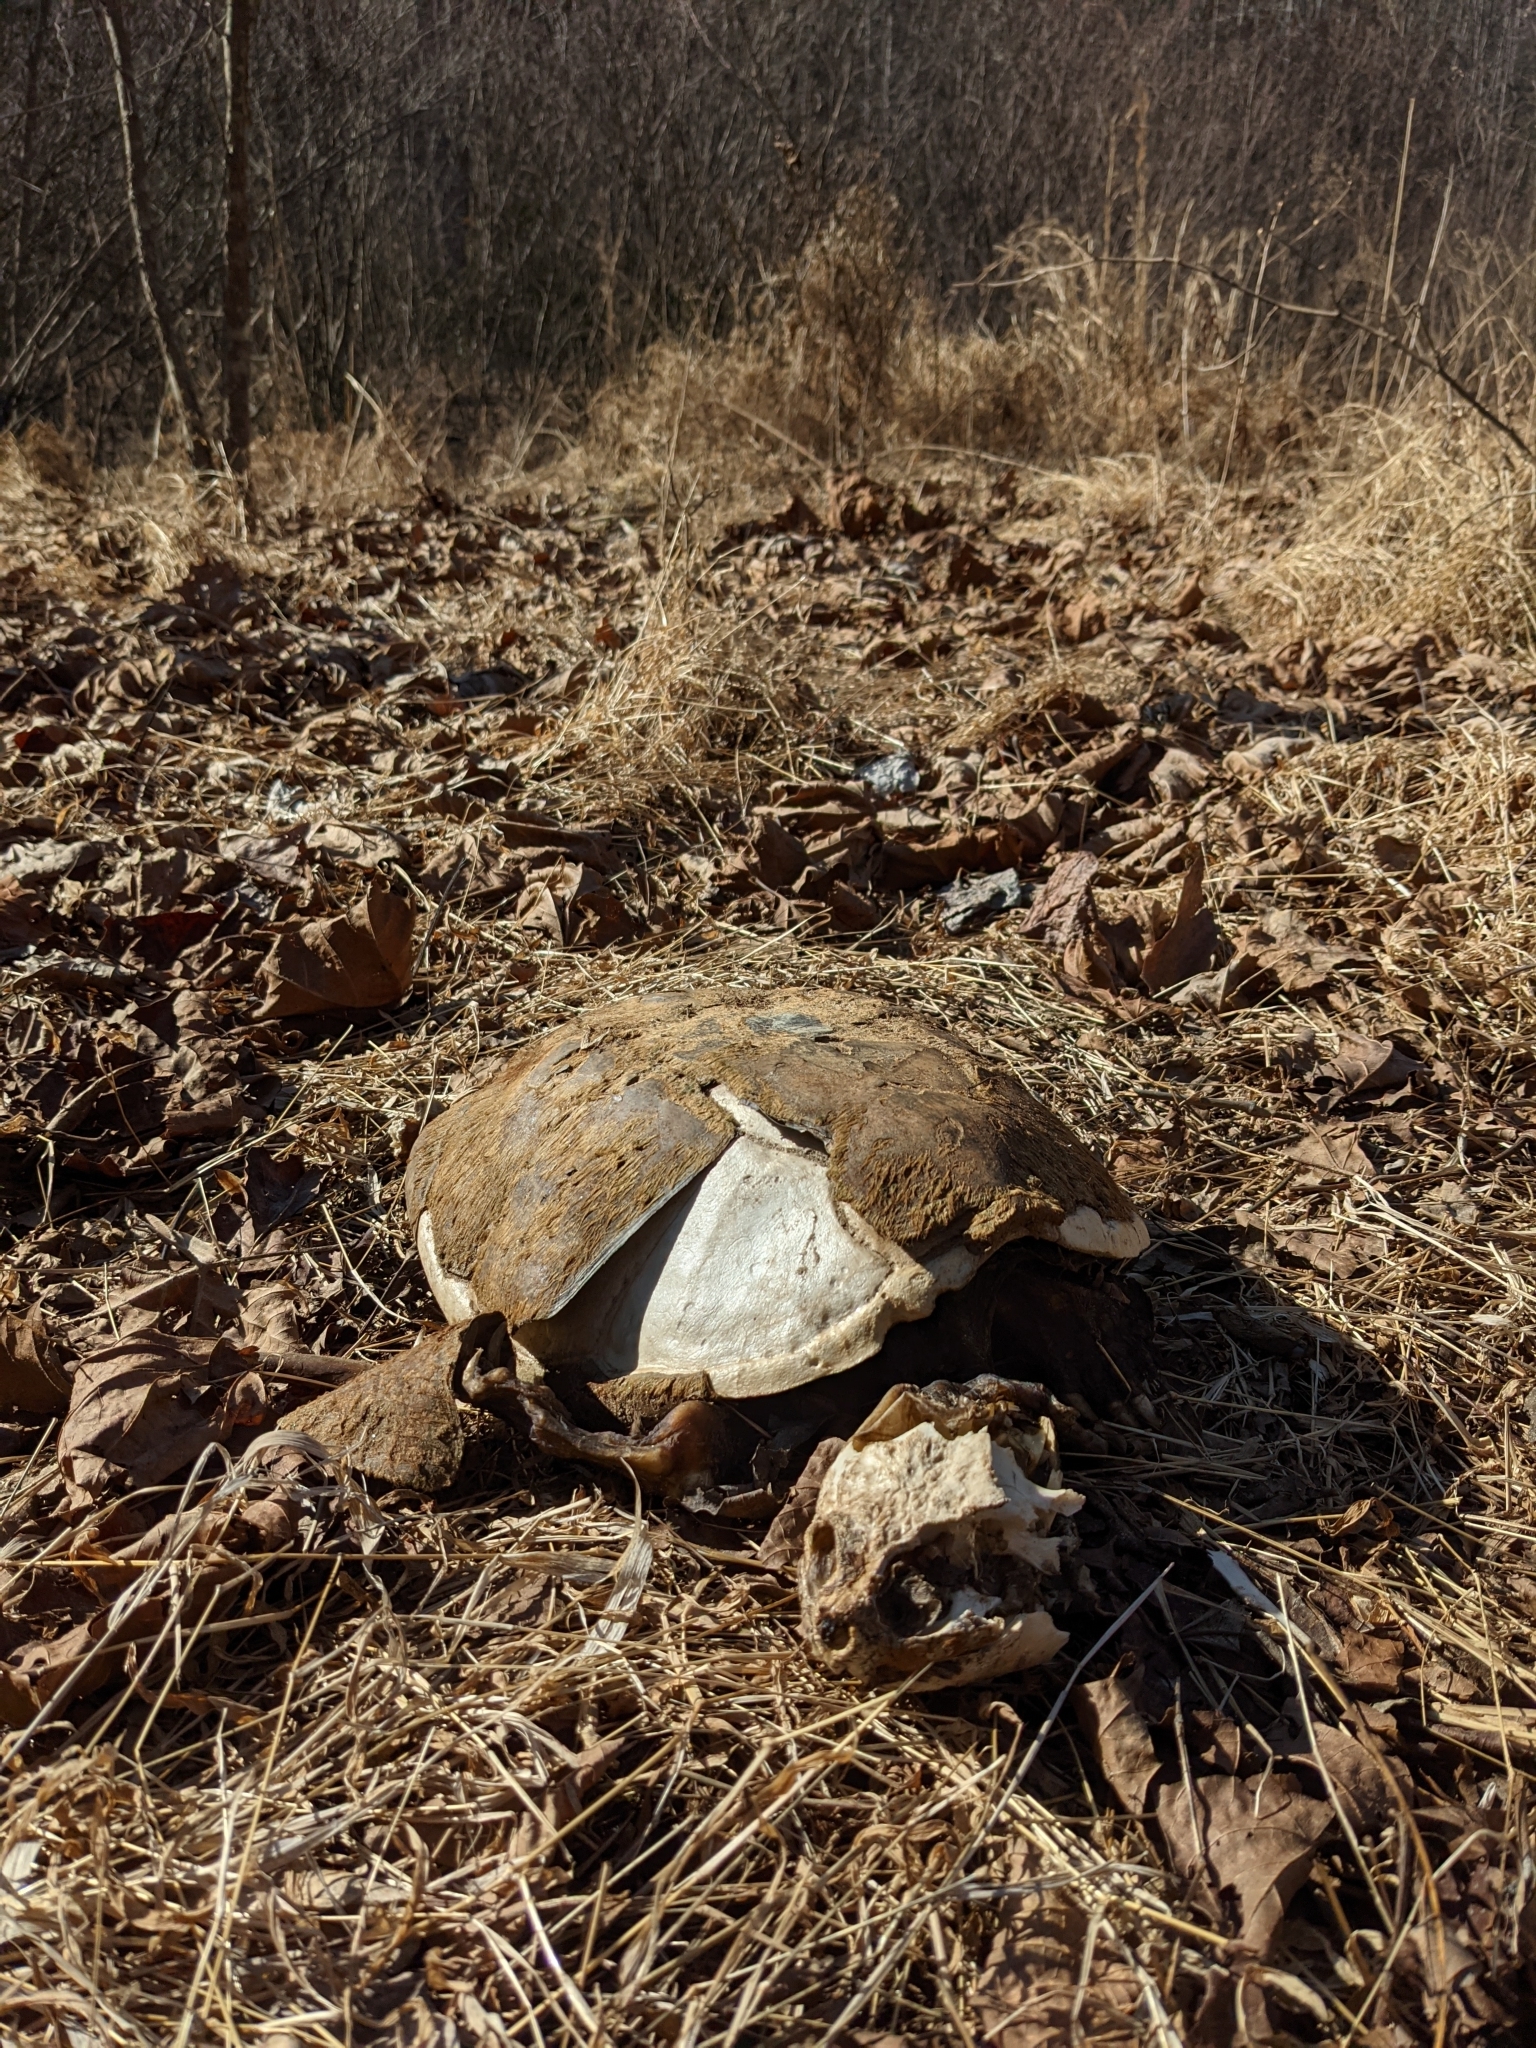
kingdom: Animalia
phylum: Chordata
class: Testudines
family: Chelydridae
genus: Chelydra
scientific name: Chelydra serpentina
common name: Common snapping turtle
